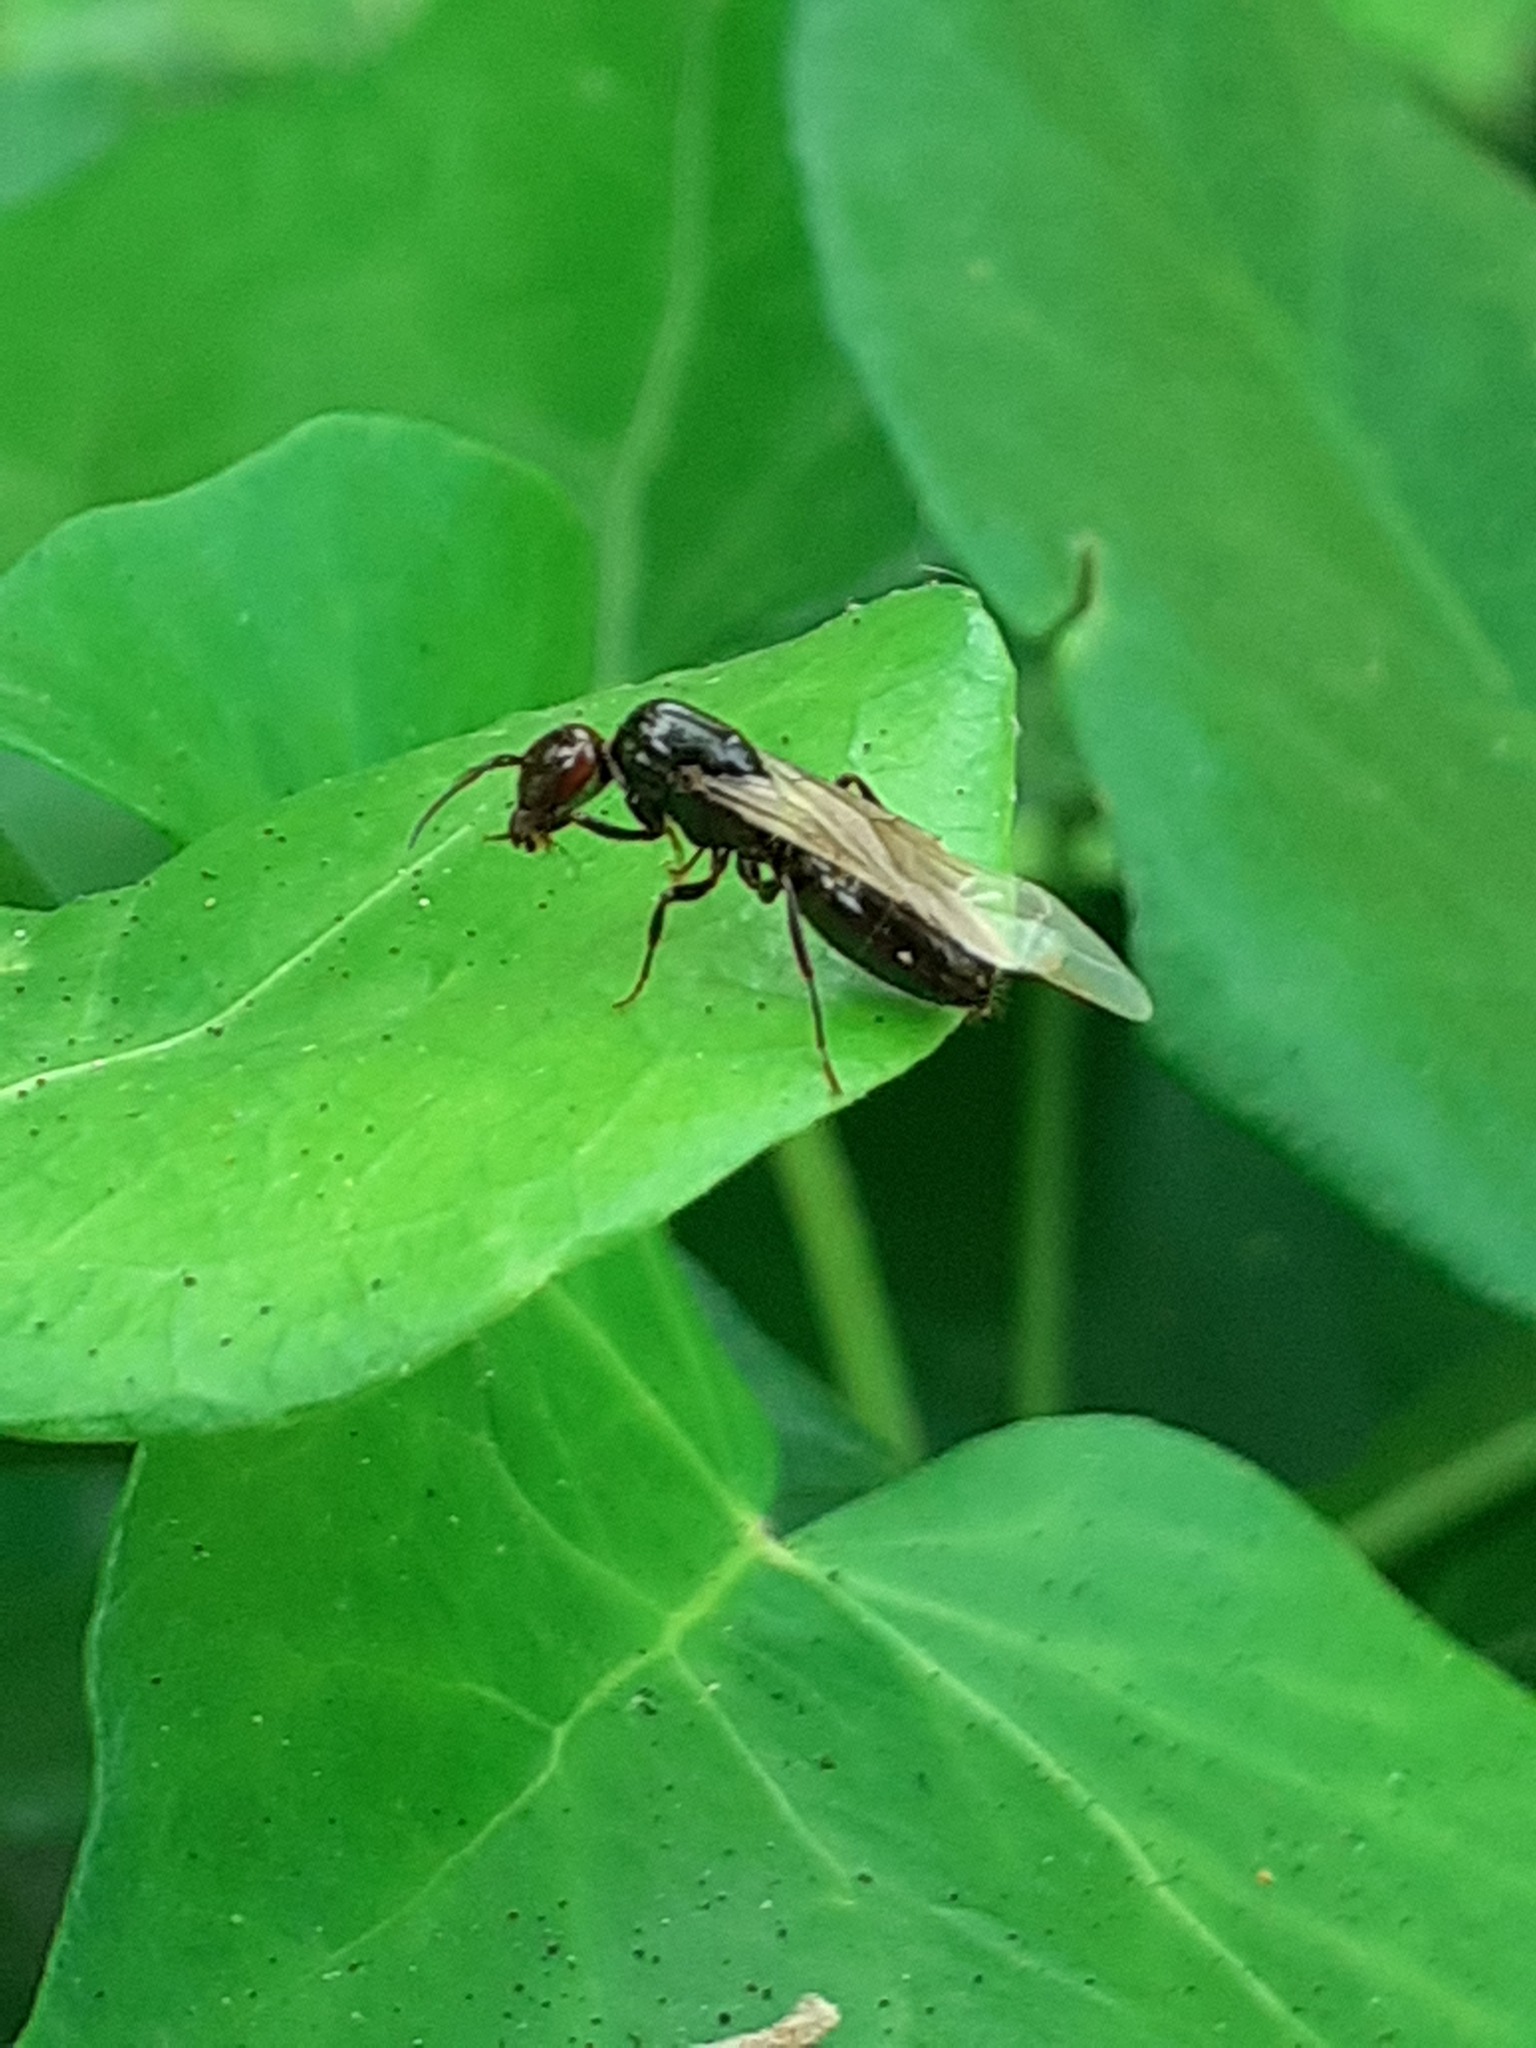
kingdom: Animalia
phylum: Arthropoda
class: Insecta
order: Hymenoptera
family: Formicidae
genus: Camponotus
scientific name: Camponotus lateralis
